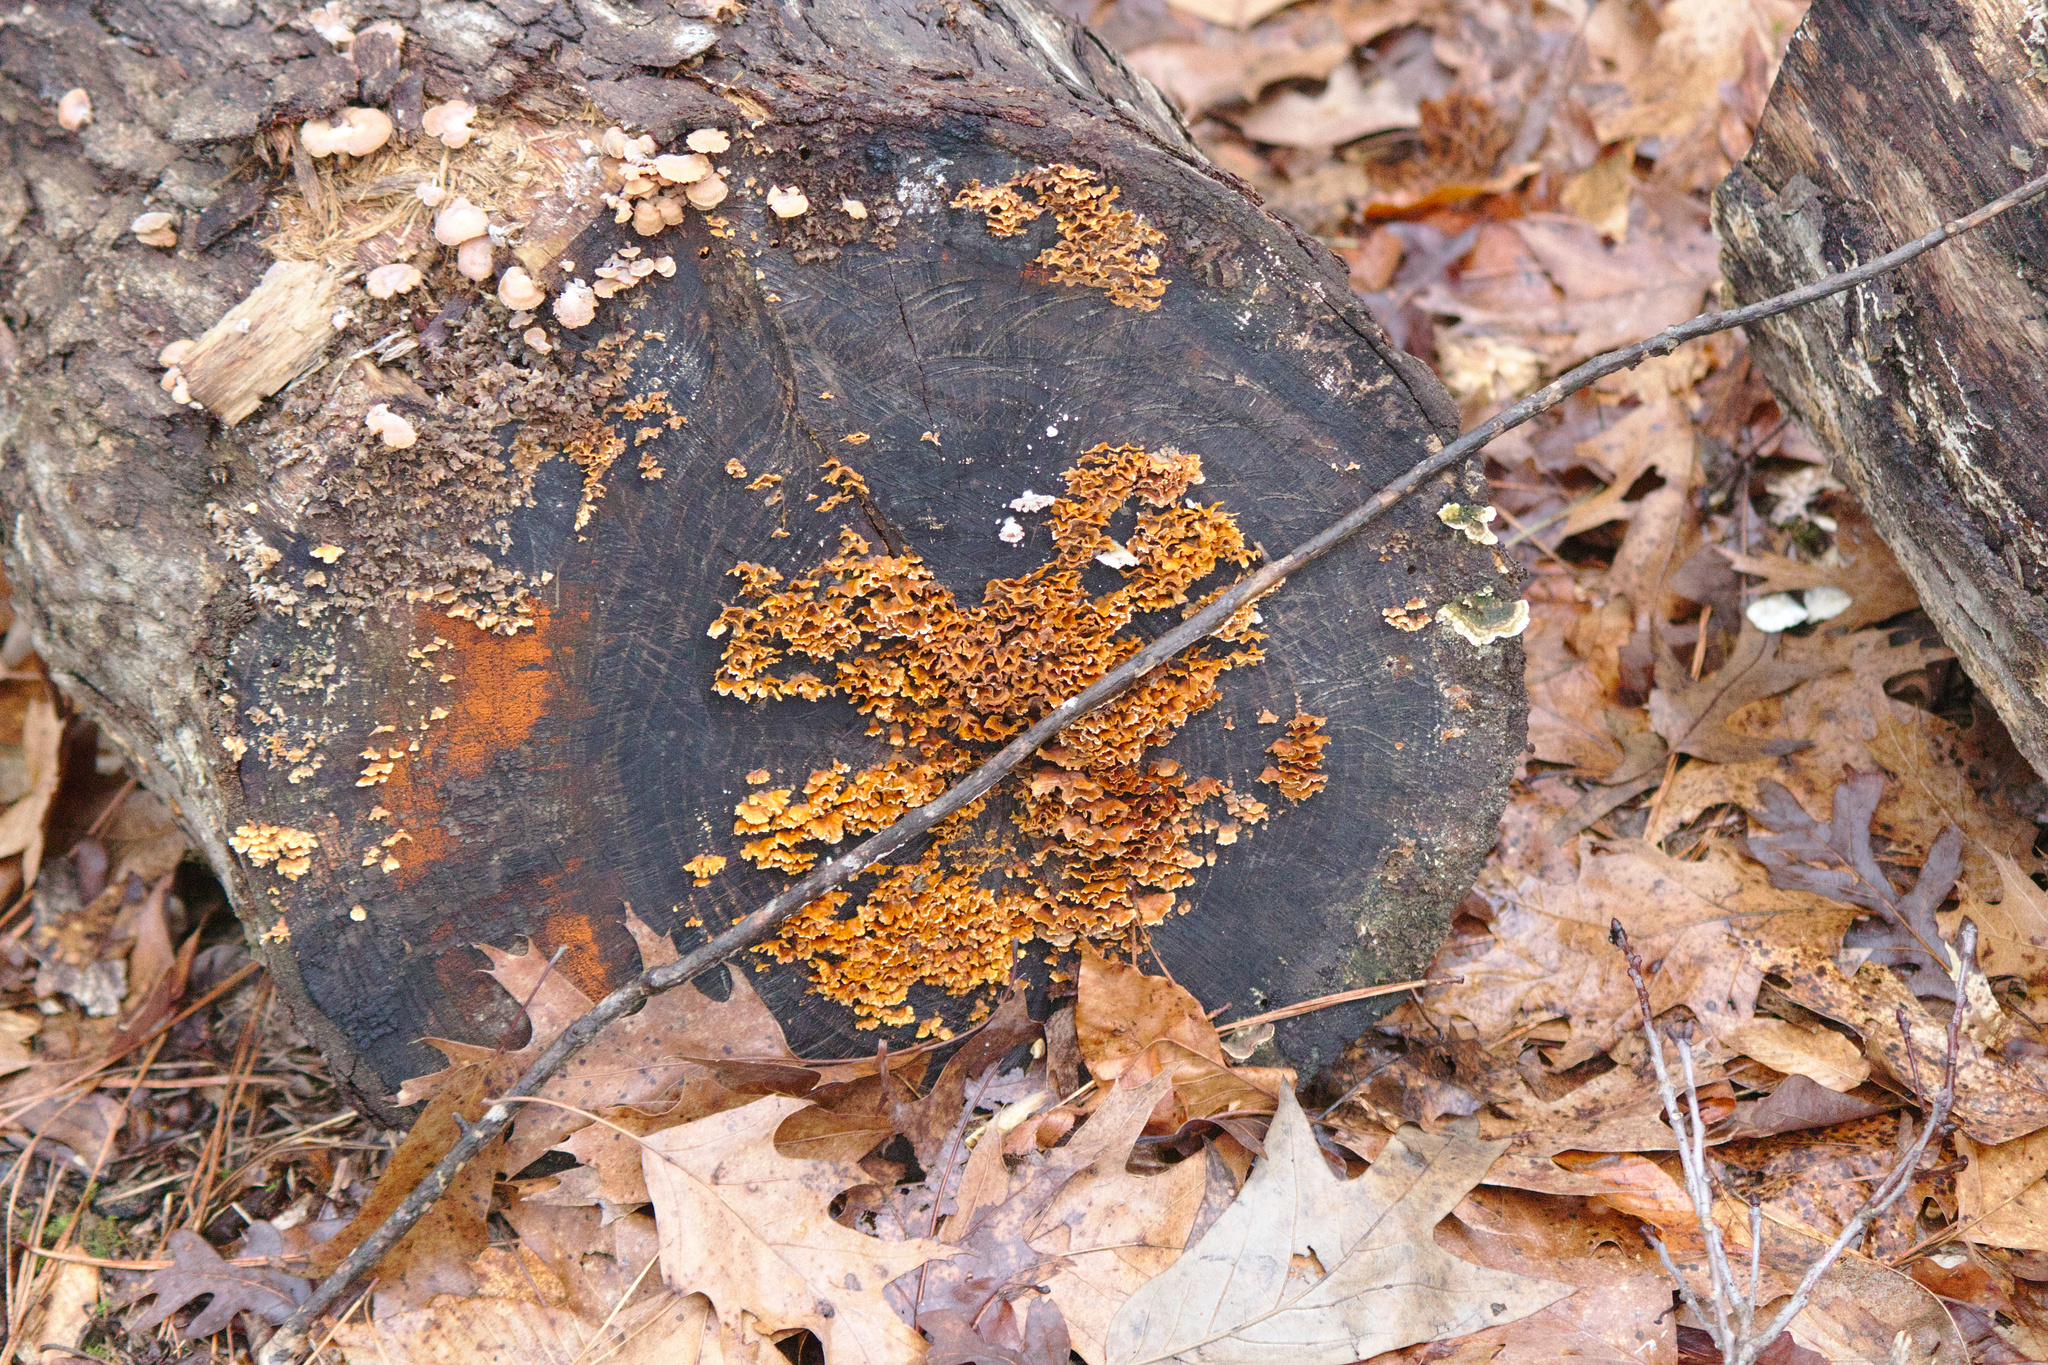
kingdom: Fungi
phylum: Basidiomycota
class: Agaricomycetes
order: Russulales
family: Stereaceae
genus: Stereum
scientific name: Stereum complicatum
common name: Crowded parchment
